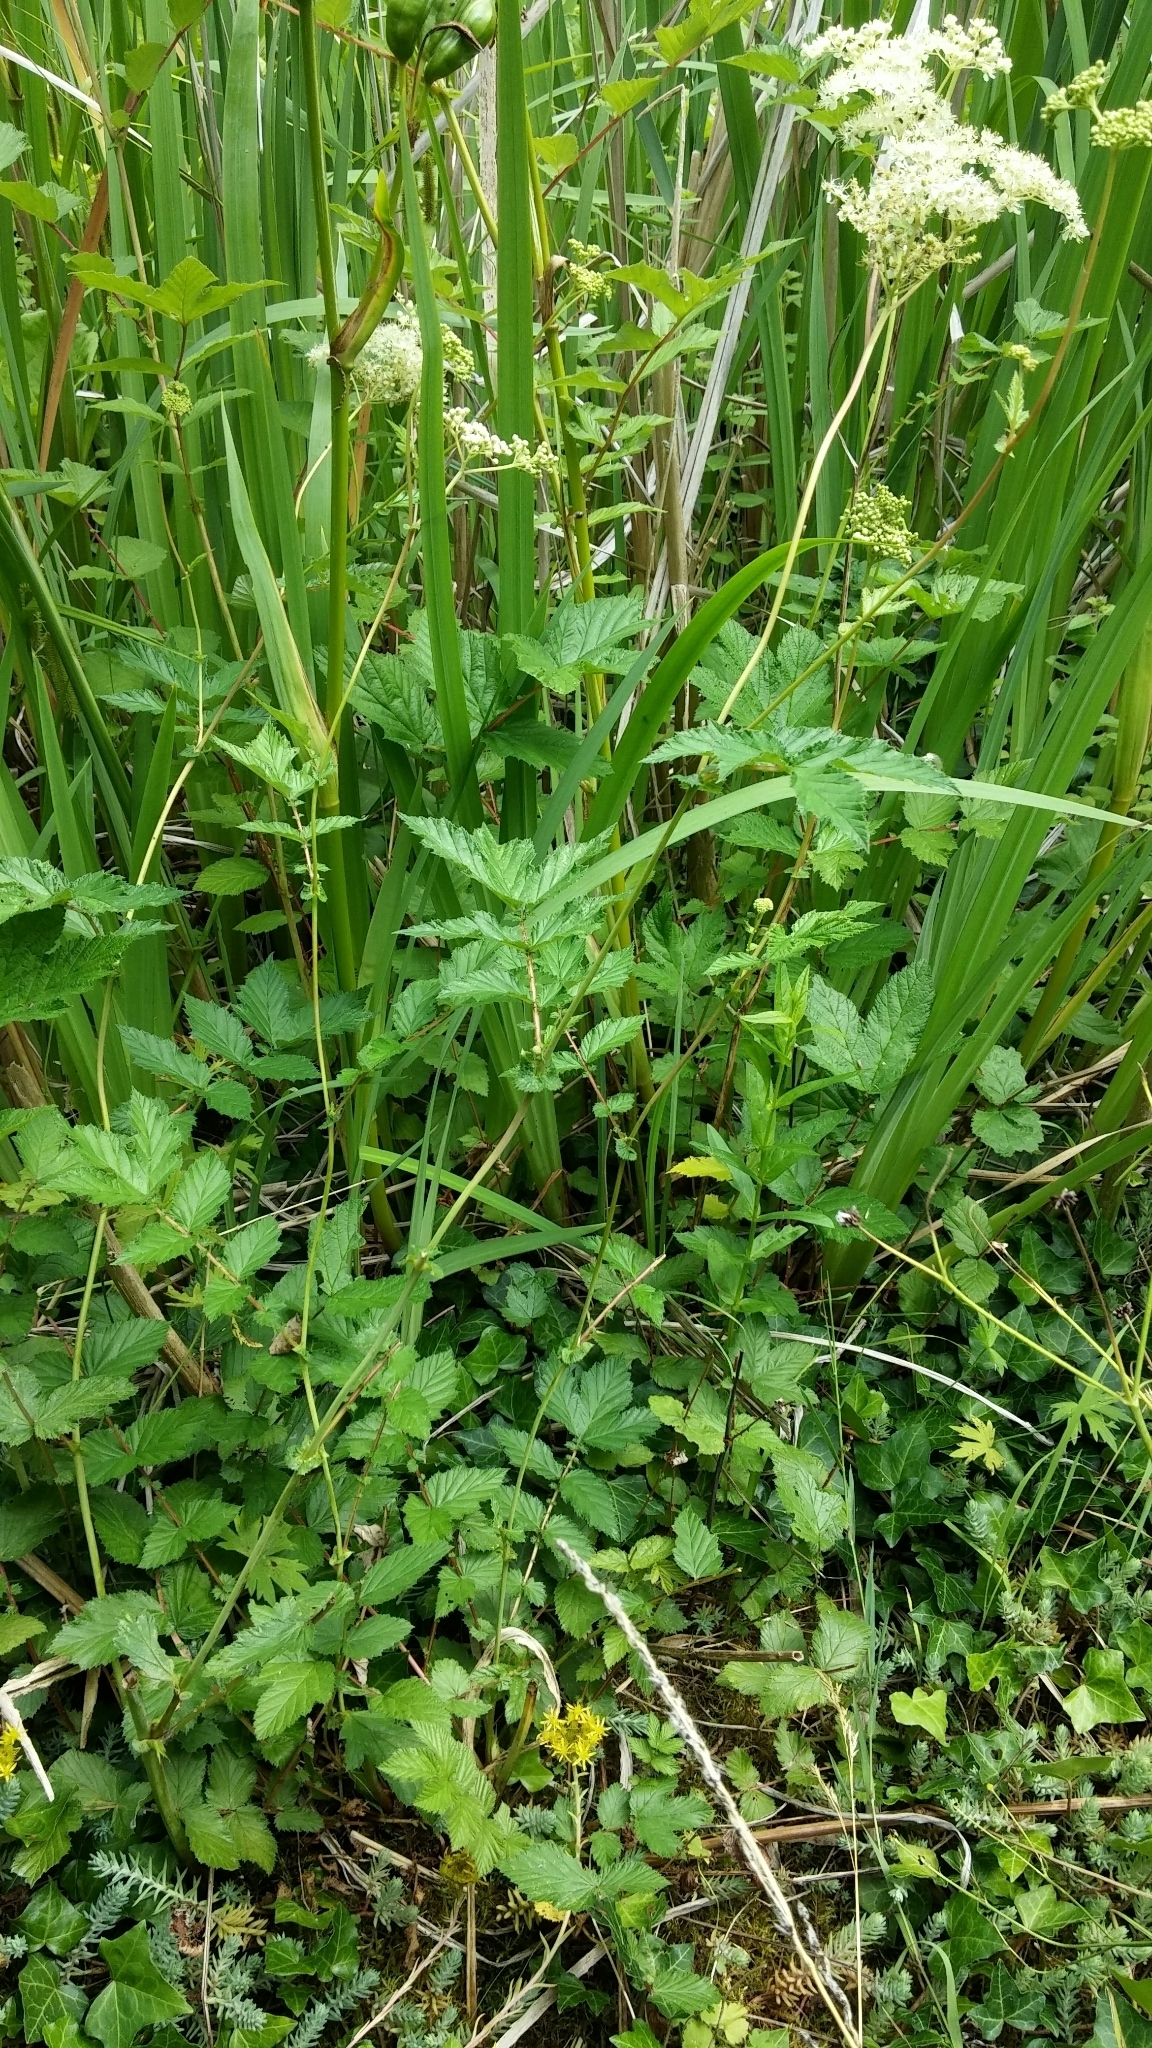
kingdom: Plantae
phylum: Tracheophyta
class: Magnoliopsida
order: Rosales
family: Rosaceae
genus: Filipendula
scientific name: Filipendula ulmaria
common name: Meadowsweet
